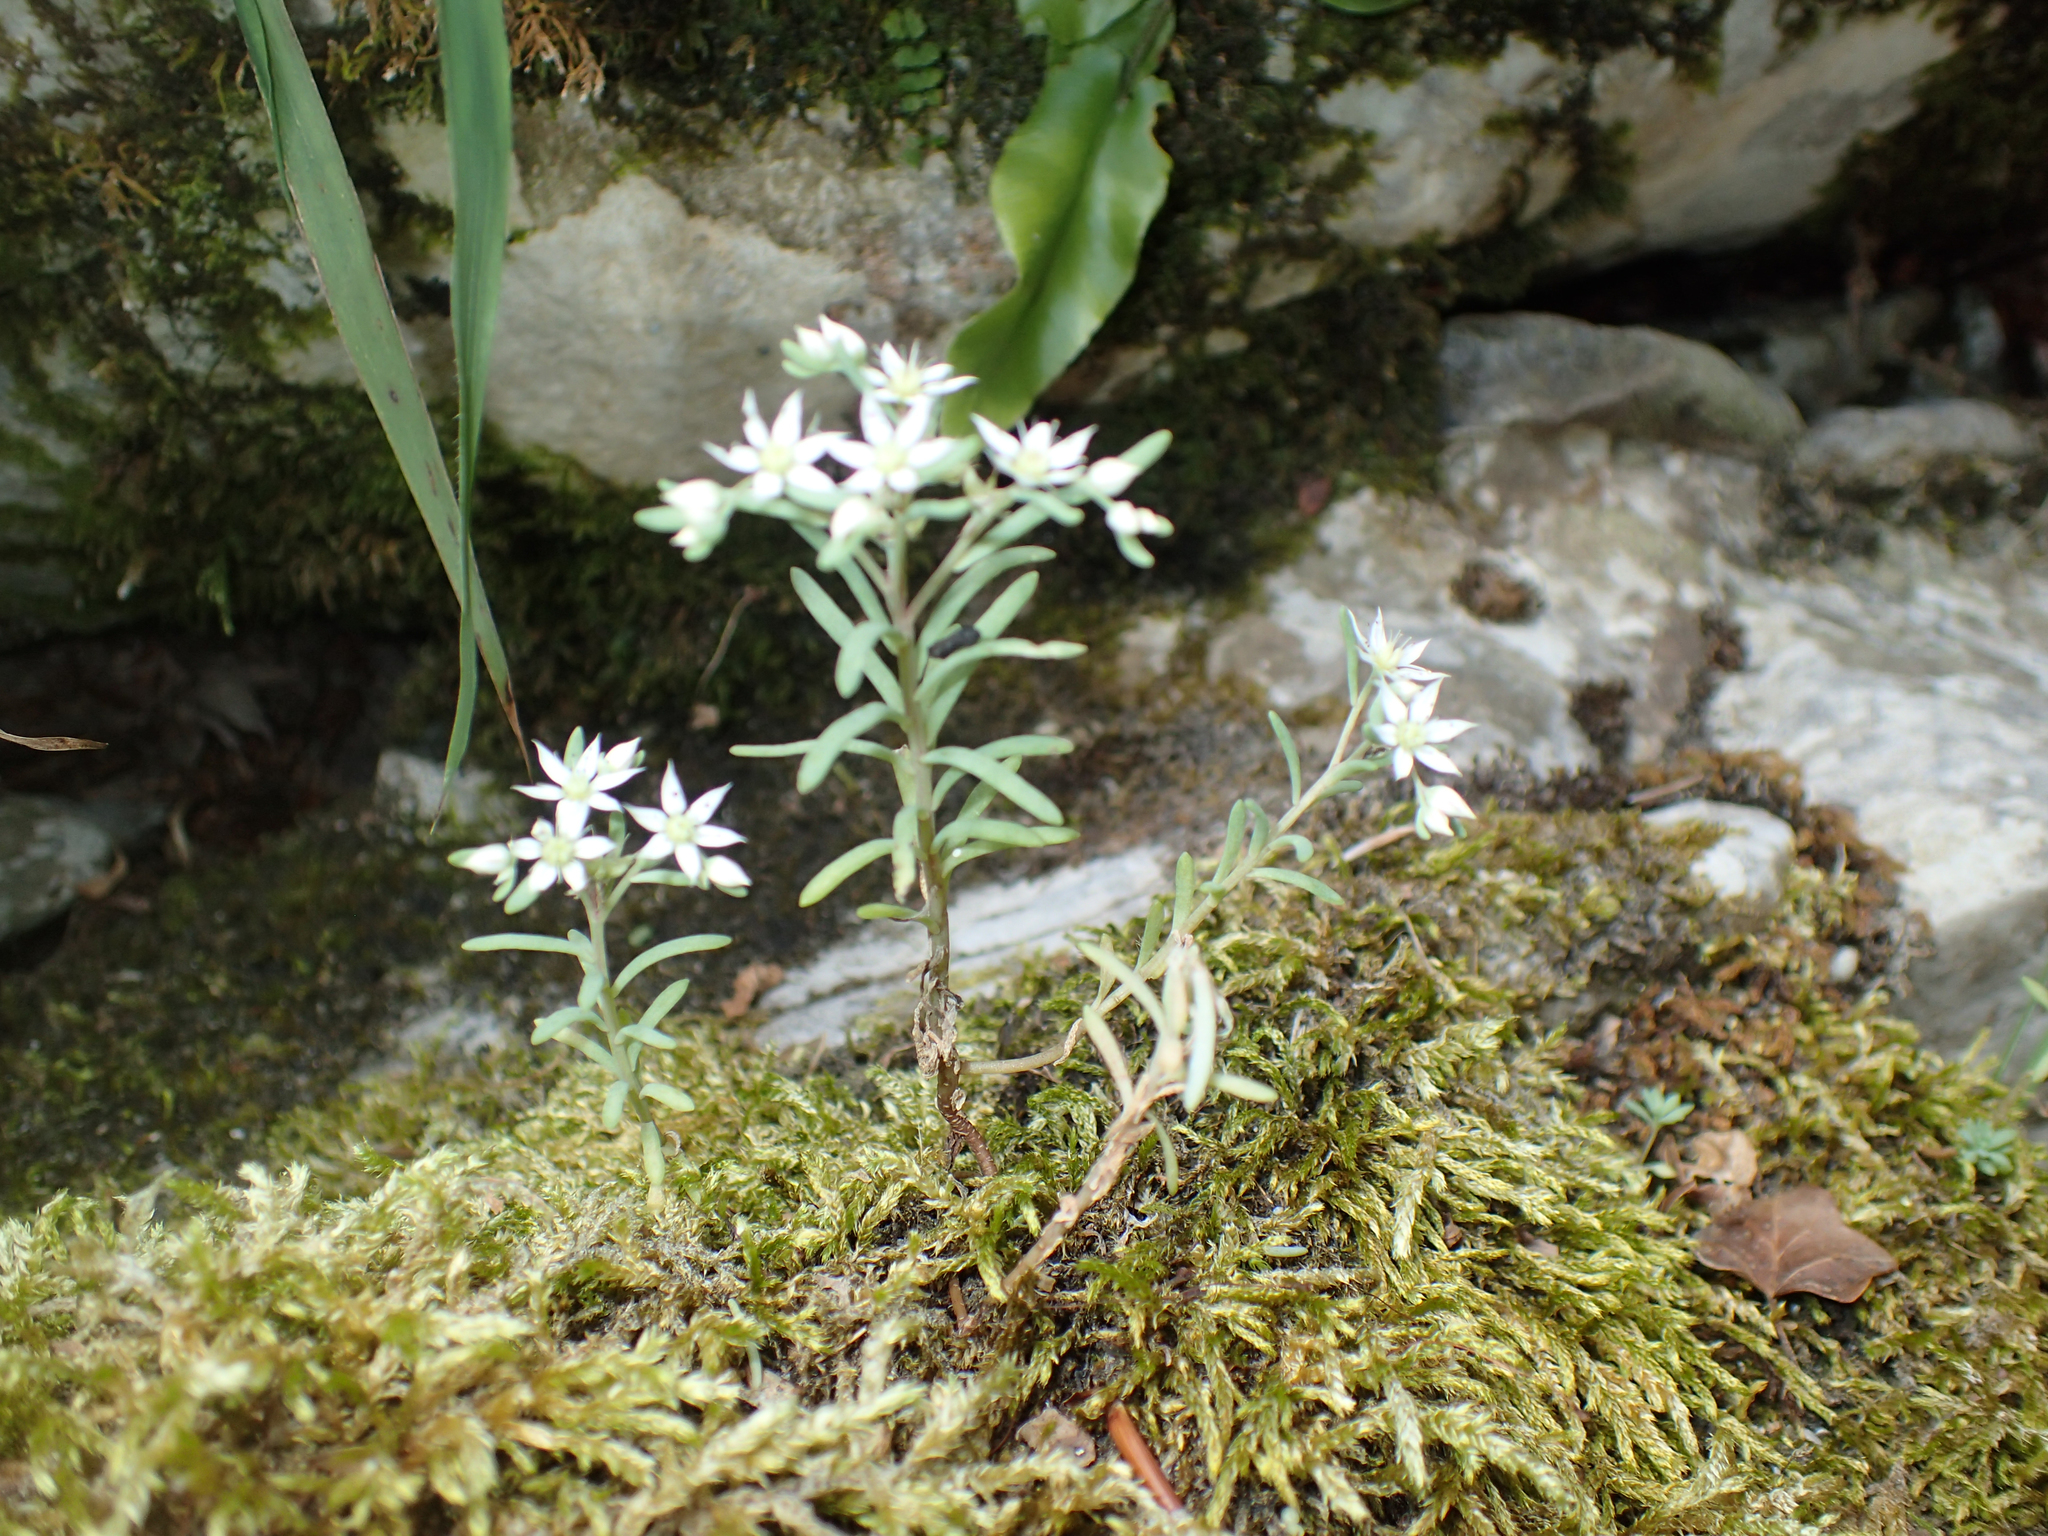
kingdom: Plantae
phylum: Tracheophyta
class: Magnoliopsida
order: Saxifragales
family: Crassulaceae
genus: Sedum
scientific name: Sedum hispanicum
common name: Spanish stonecrop
